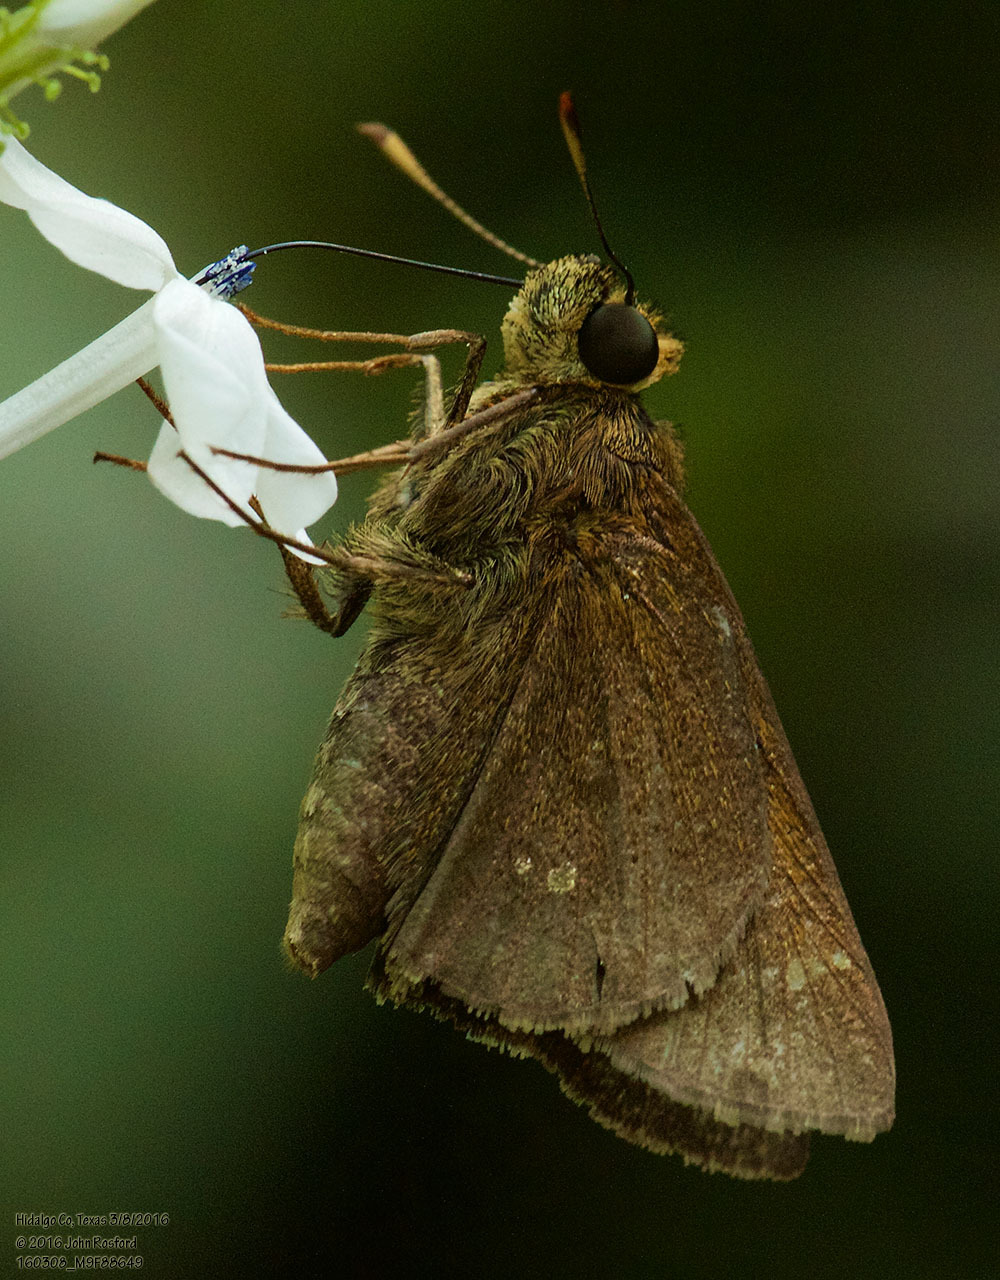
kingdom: Animalia
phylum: Arthropoda
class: Insecta
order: Lepidoptera
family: Hesperiidae
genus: Decinea
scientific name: Decinea percosius
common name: Double-dotted skipper
